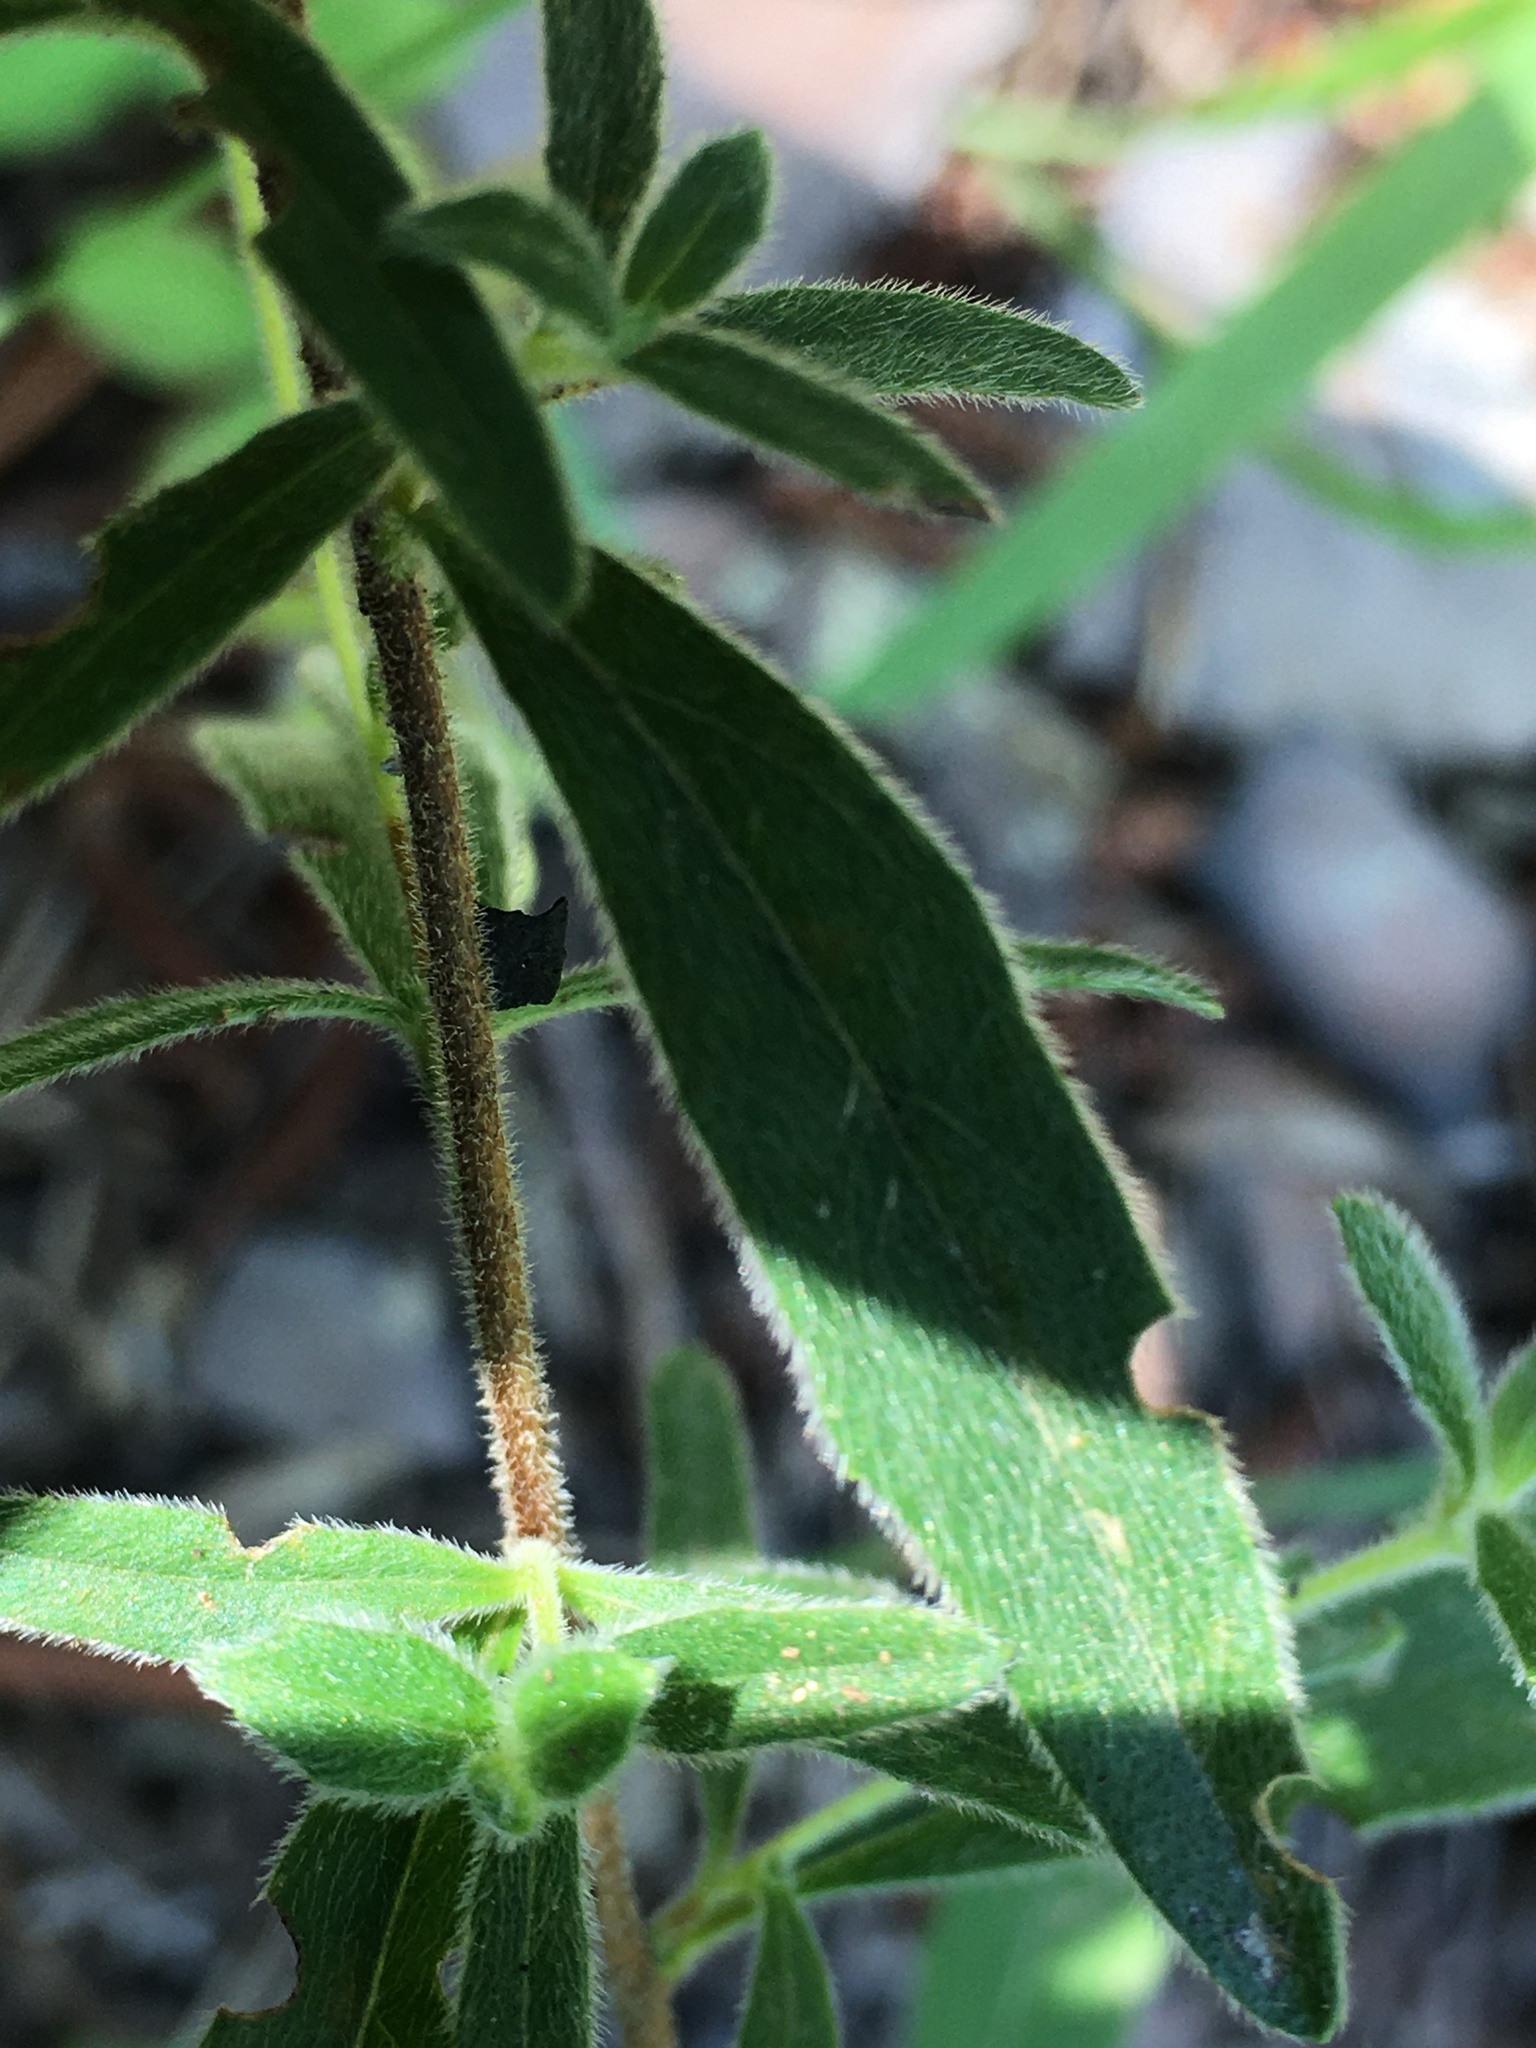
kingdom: Plantae
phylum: Tracheophyta
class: Magnoliopsida
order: Myrtales
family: Onagraceae
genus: Oenothera
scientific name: Oenothera fruticosa
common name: Southern sundrops
